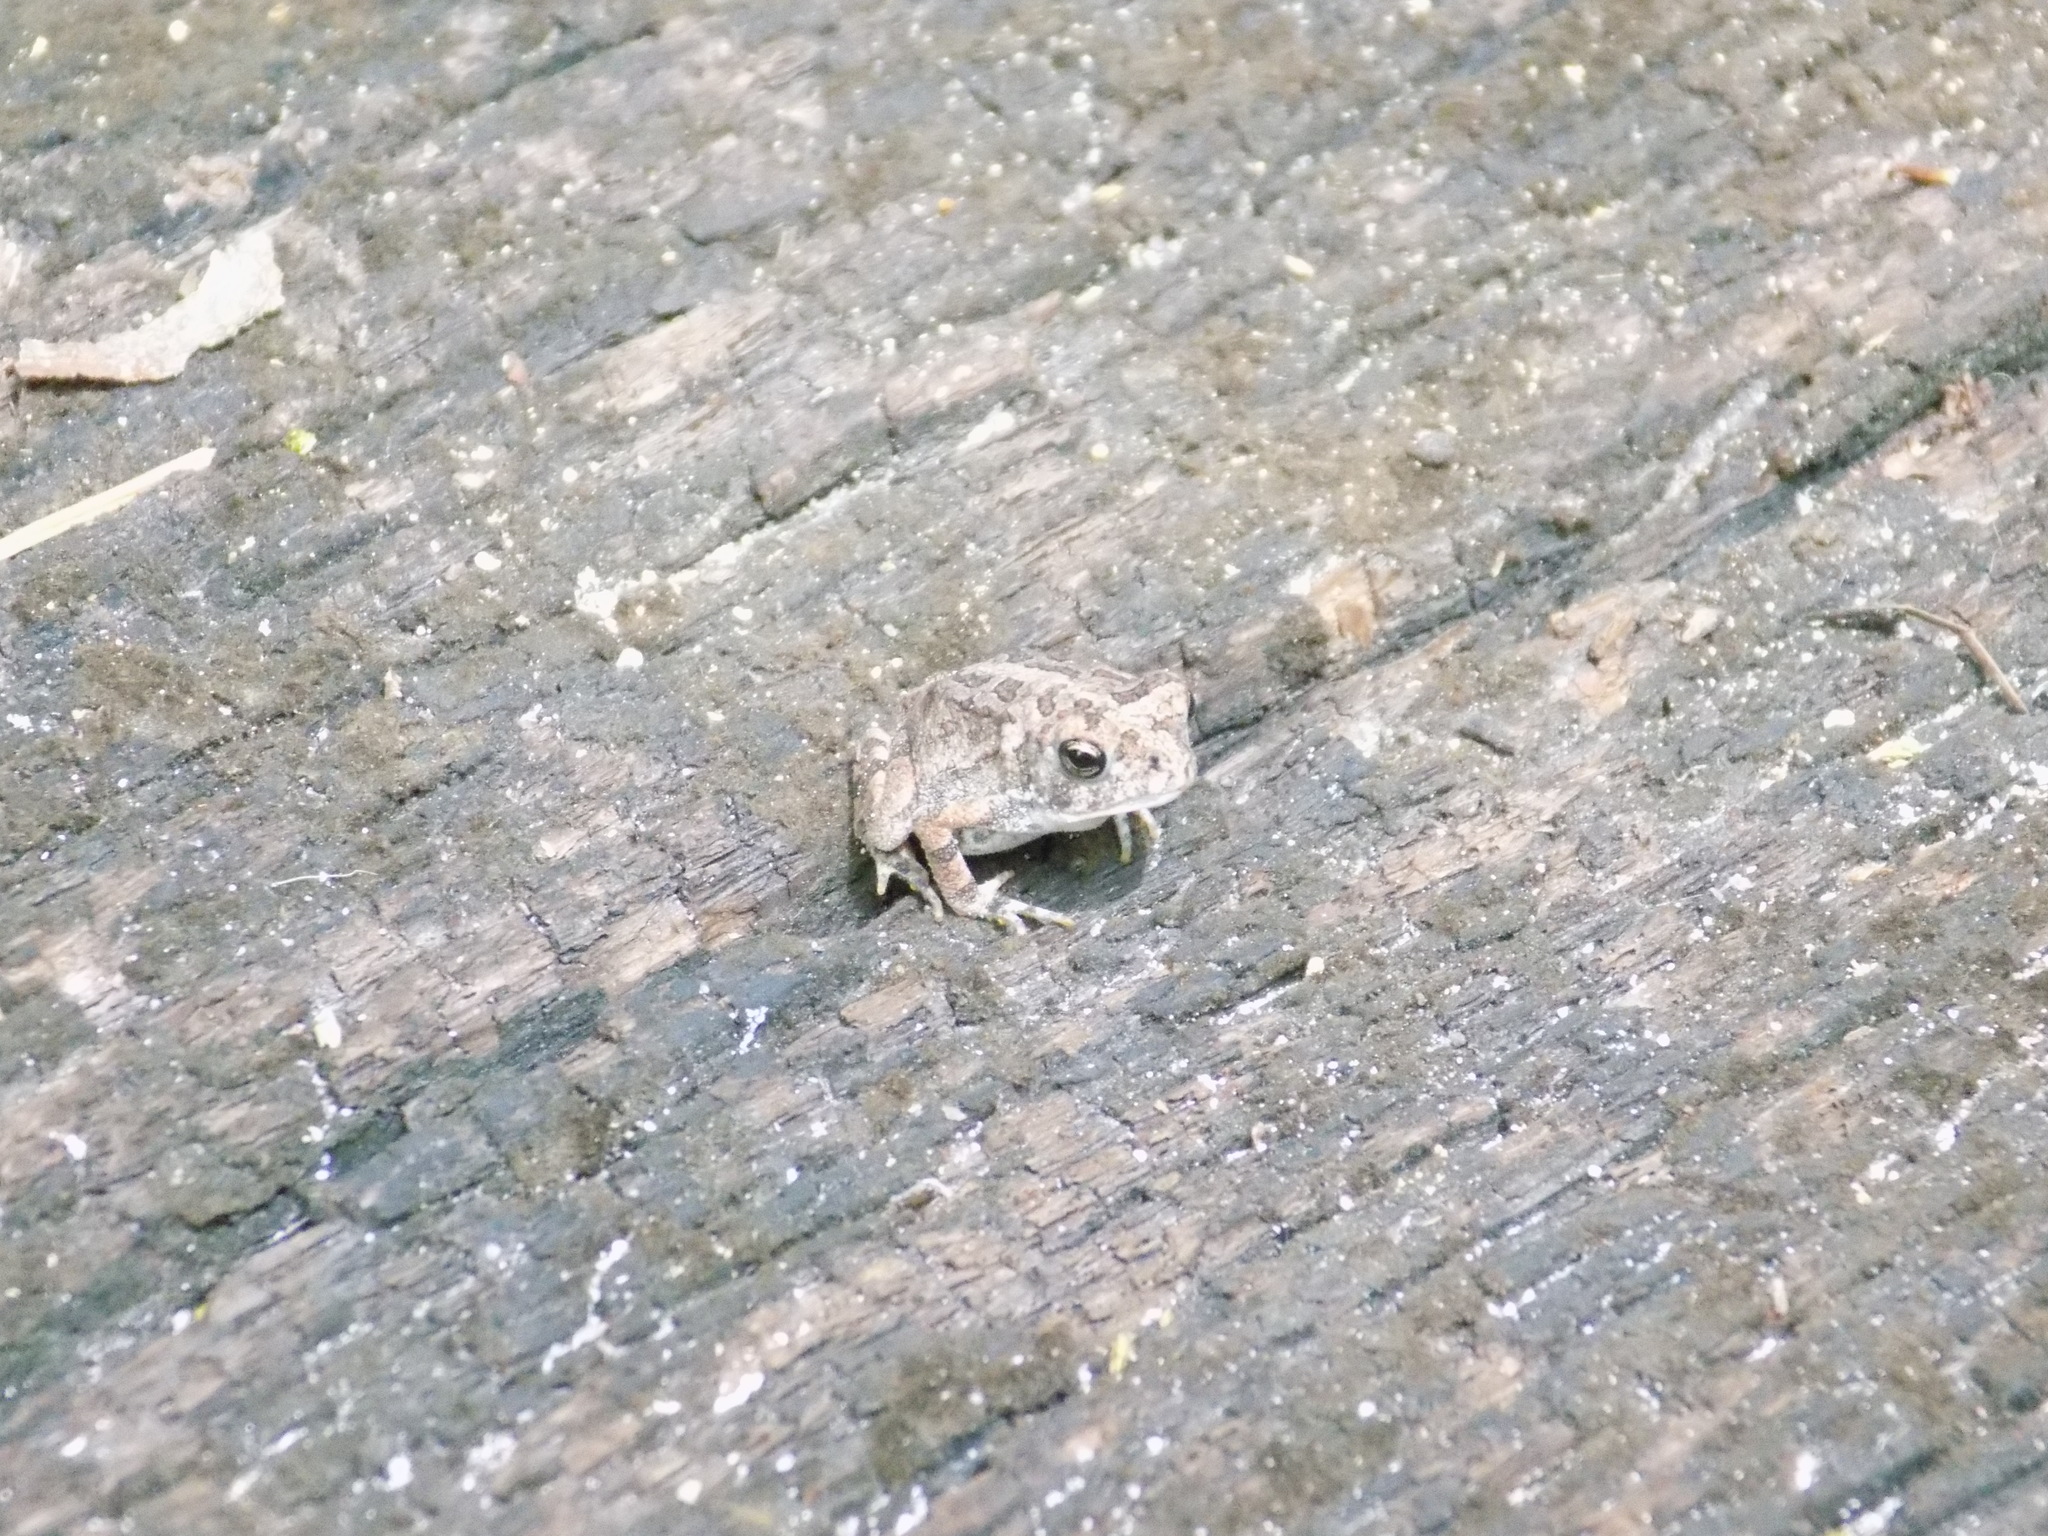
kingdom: Animalia
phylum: Chordata
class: Amphibia
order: Anura
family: Bufonidae
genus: Anaxyrus
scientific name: Anaxyrus terrestris
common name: Southern toad
